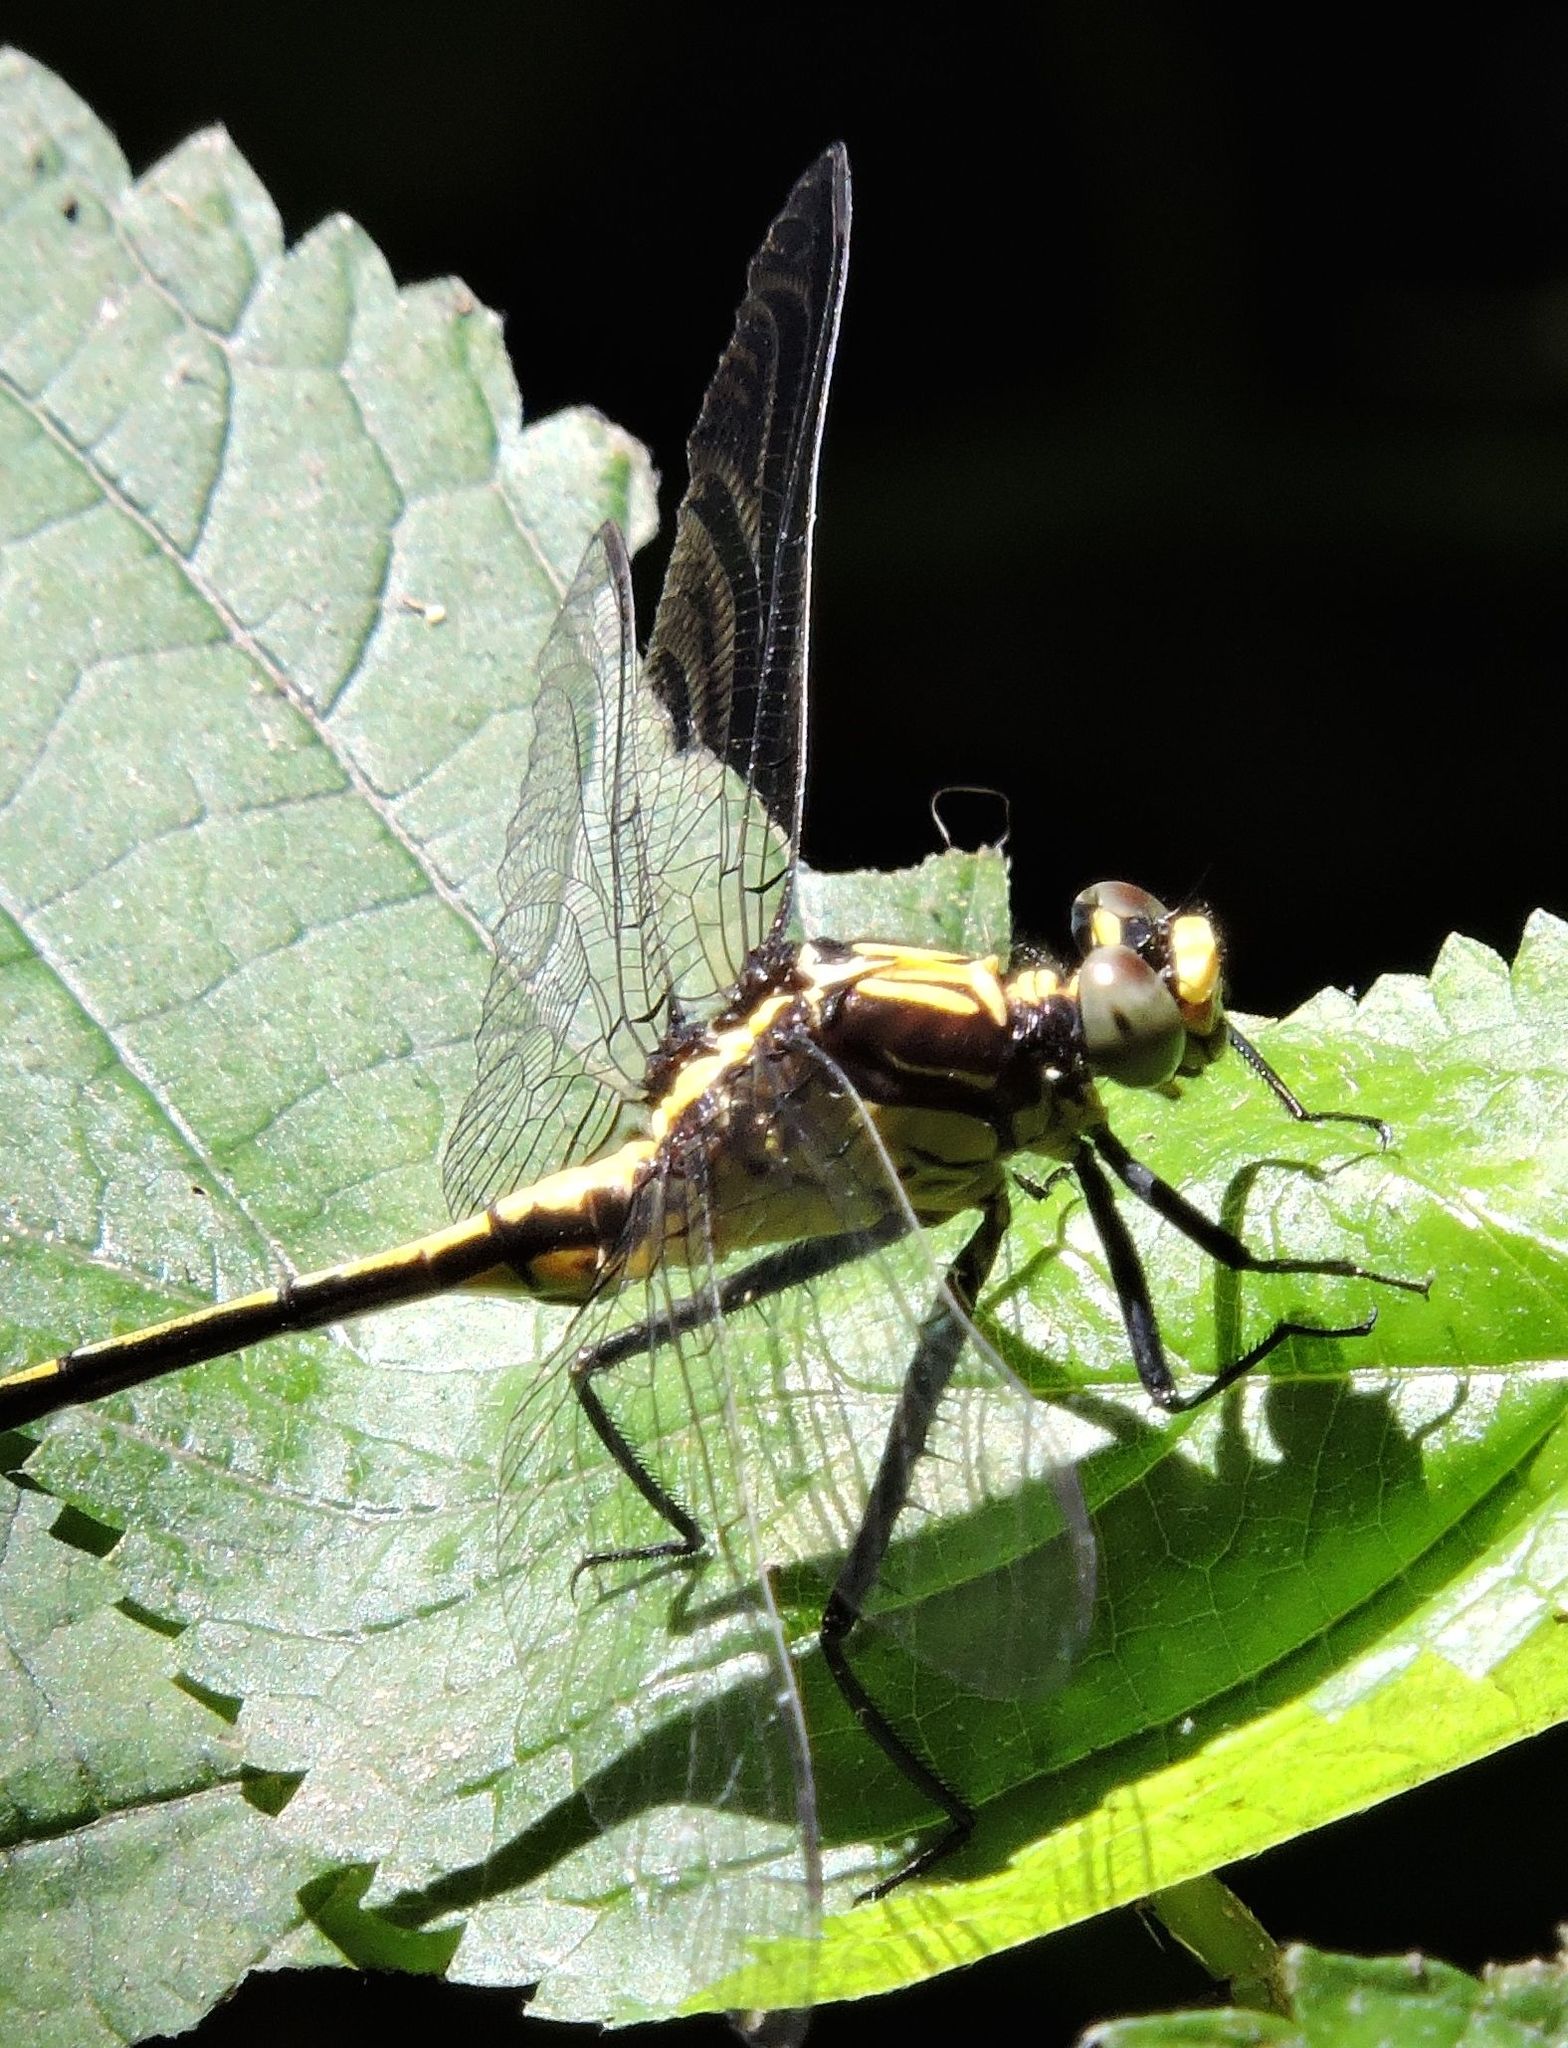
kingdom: Animalia
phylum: Arthropoda
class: Insecta
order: Odonata
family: Gomphidae
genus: Dromogomphus
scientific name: Dromogomphus spinosus
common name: Black-shouldered spinyleg
